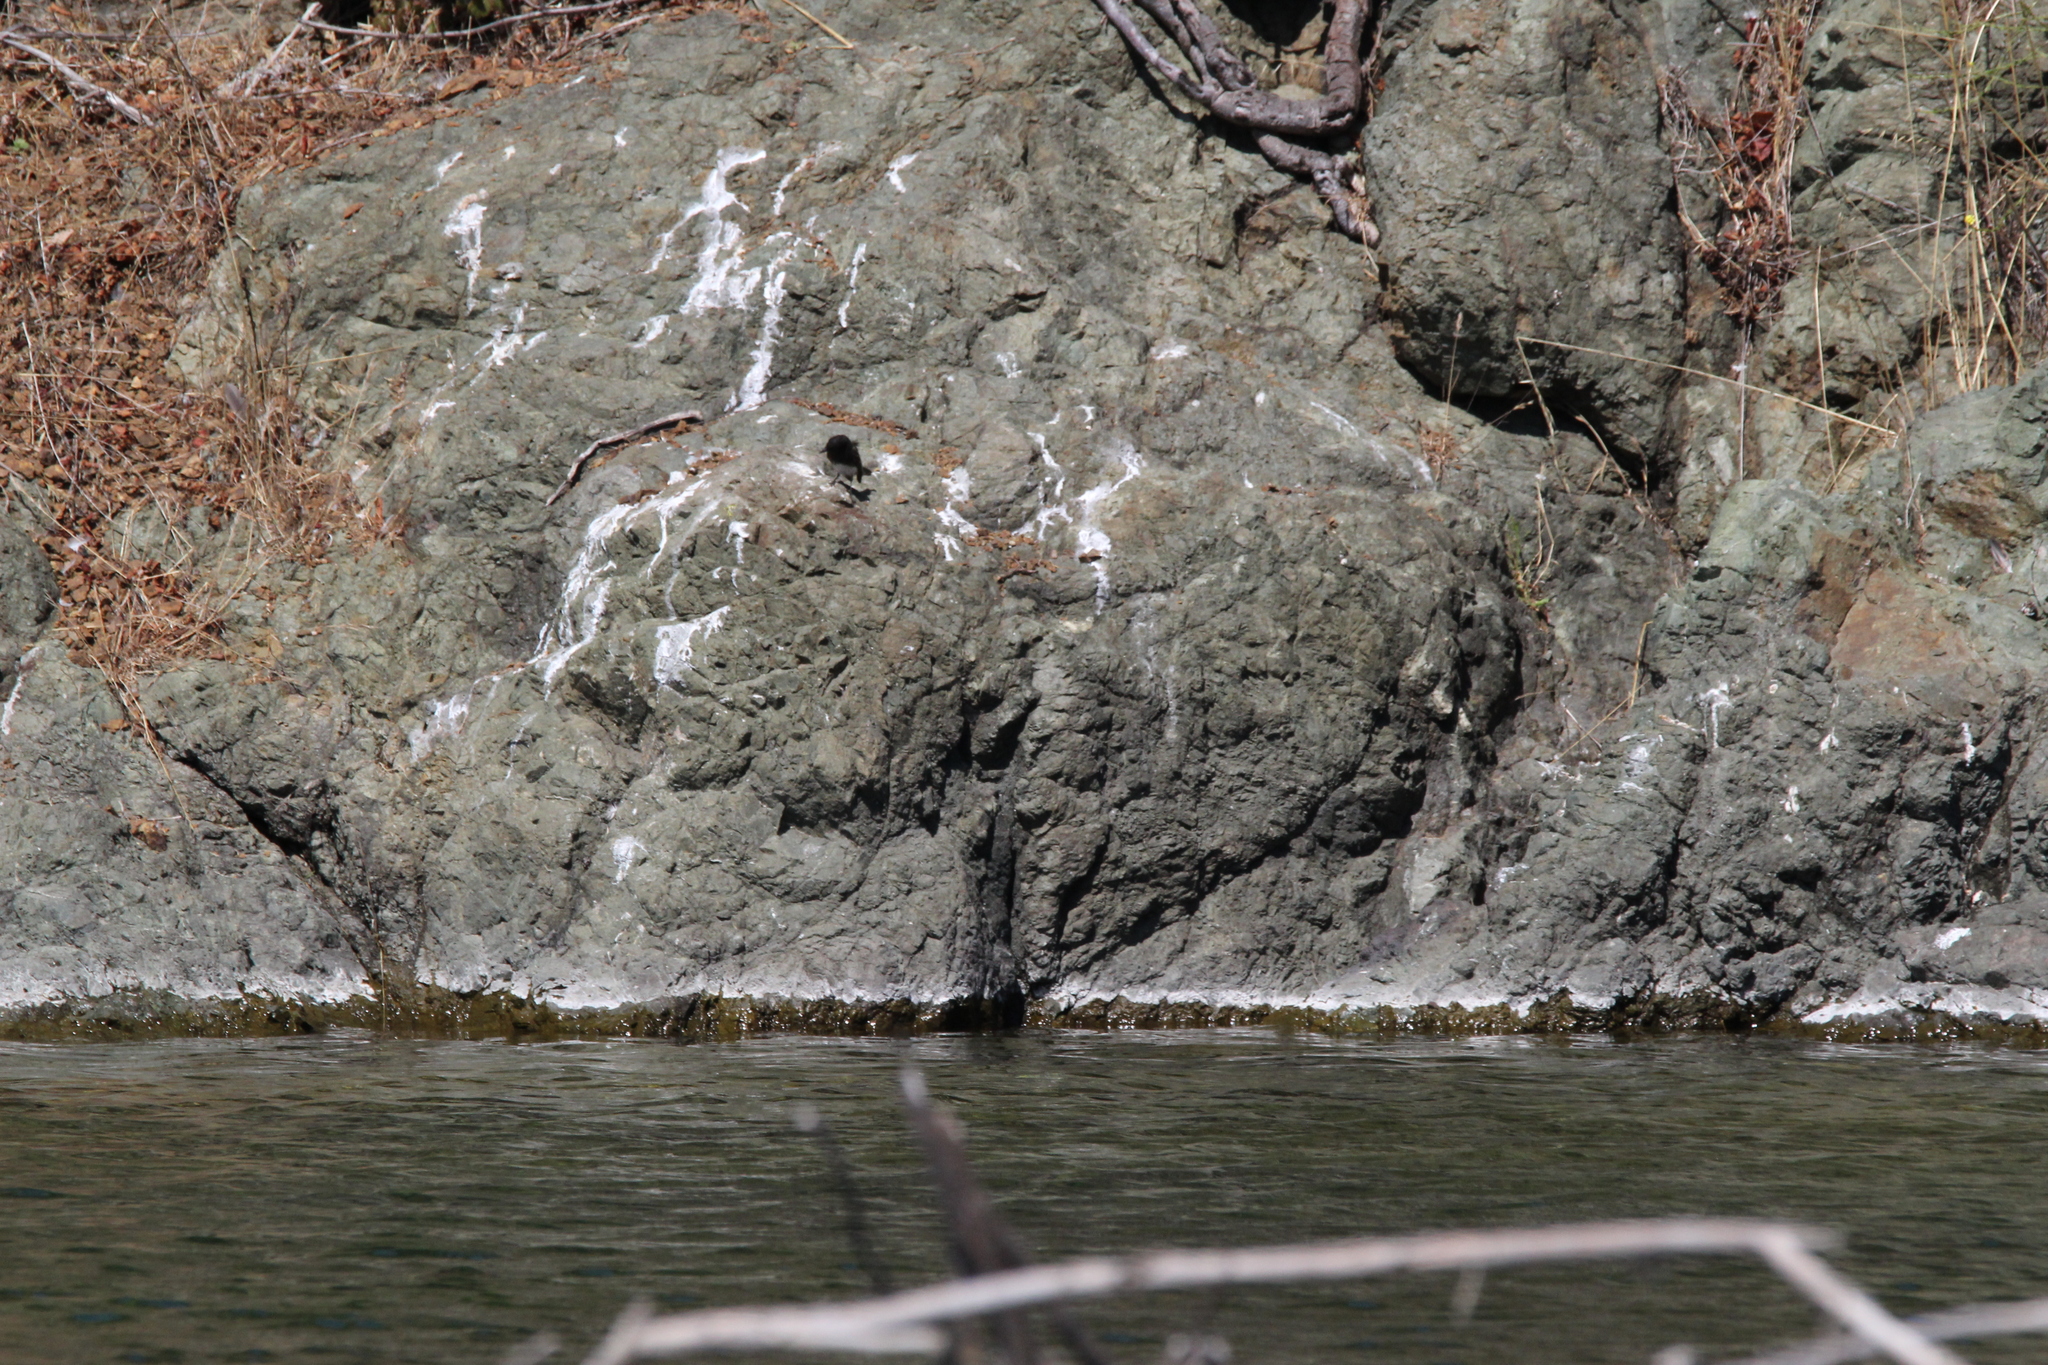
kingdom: Animalia
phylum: Chordata
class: Aves
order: Passeriformes
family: Tyrannidae
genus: Sayornis
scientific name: Sayornis nigricans
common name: Black phoebe
